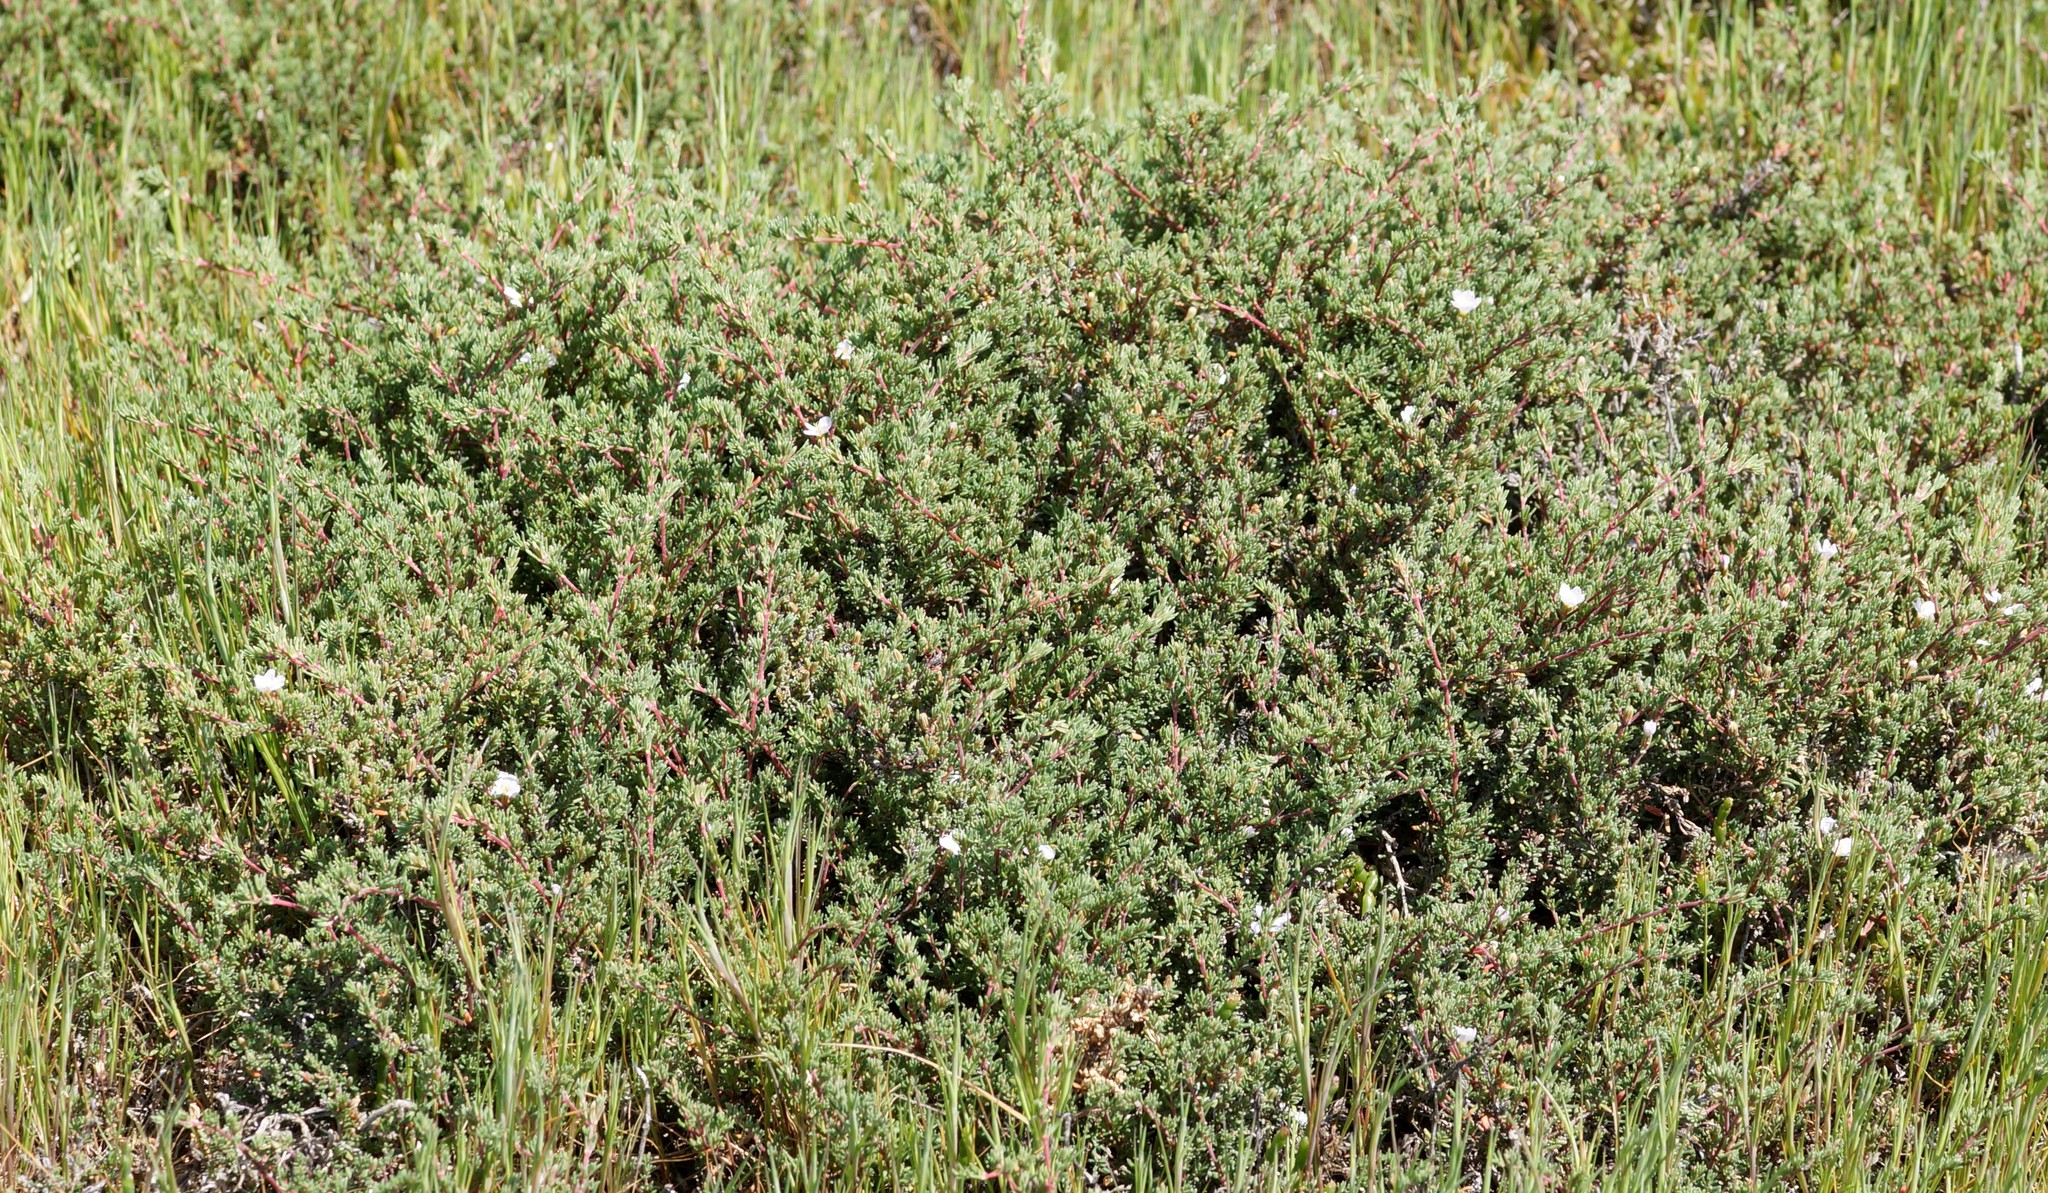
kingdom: Plantae
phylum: Tracheophyta
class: Magnoliopsida
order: Caryophyllales
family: Frankeniaceae
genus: Frankenia
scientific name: Frankenia pauciflora
